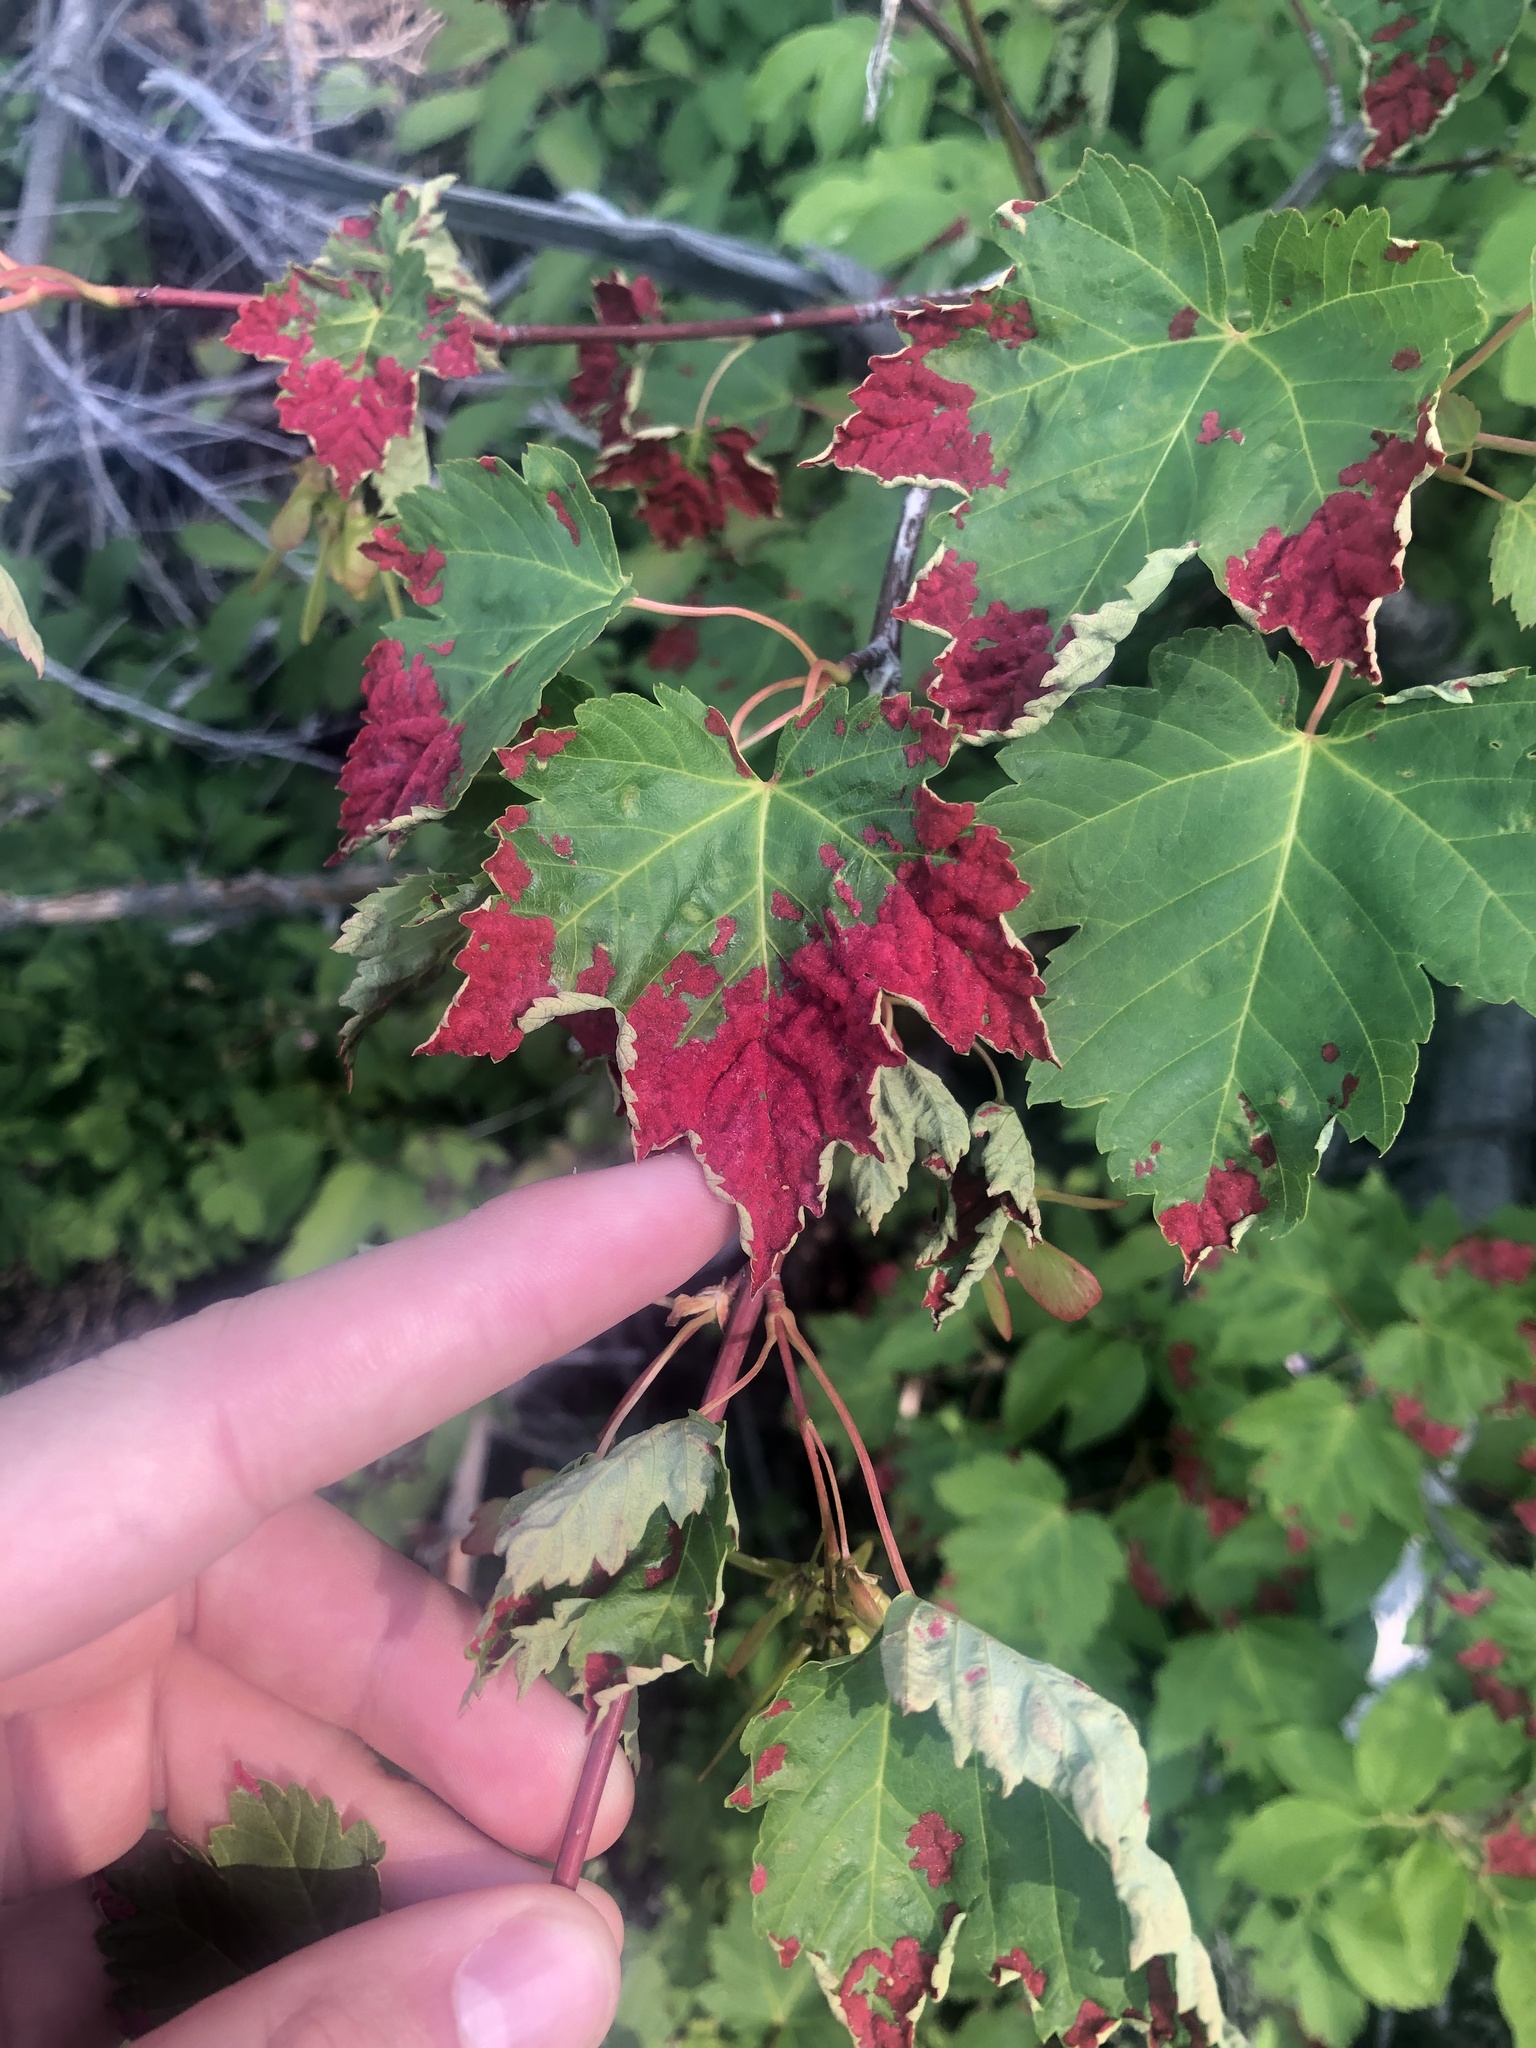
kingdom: Animalia
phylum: Arthropoda
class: Arachnida
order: Trombidiformes
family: Eriophyidae
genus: Aceria
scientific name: Aceria
